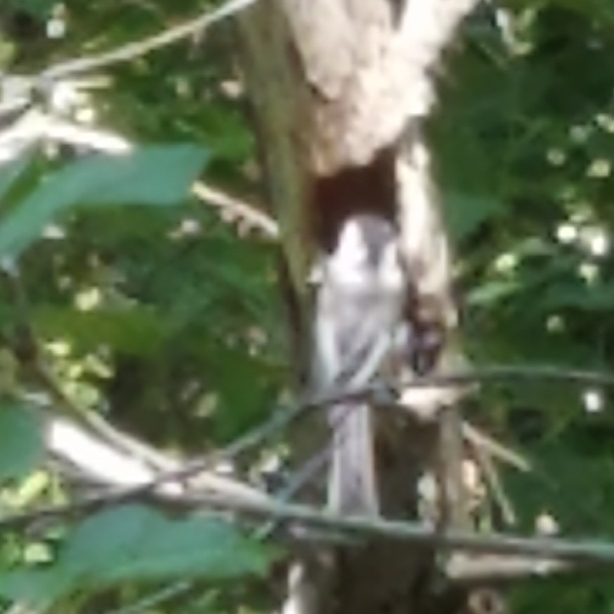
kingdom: Animalia
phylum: Chordata
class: Aves
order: Passeriformes
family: Paridae
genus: Poecile
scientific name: Poecile atricapillus
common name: Black-capped chickadee
